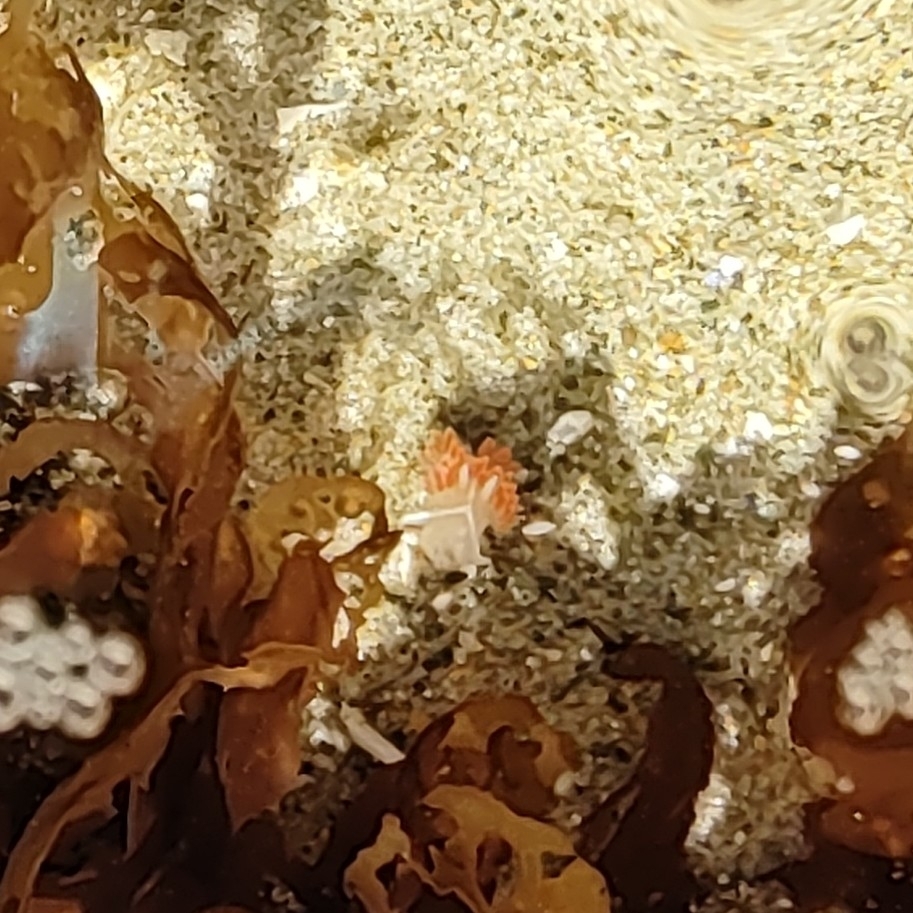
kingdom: Animalia
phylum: Mollusca
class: Gastropoda
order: Nudibranchia
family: Myrrhinidae
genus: Hermissenda
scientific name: Hermissenda crassicornis
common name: Hermissenda
